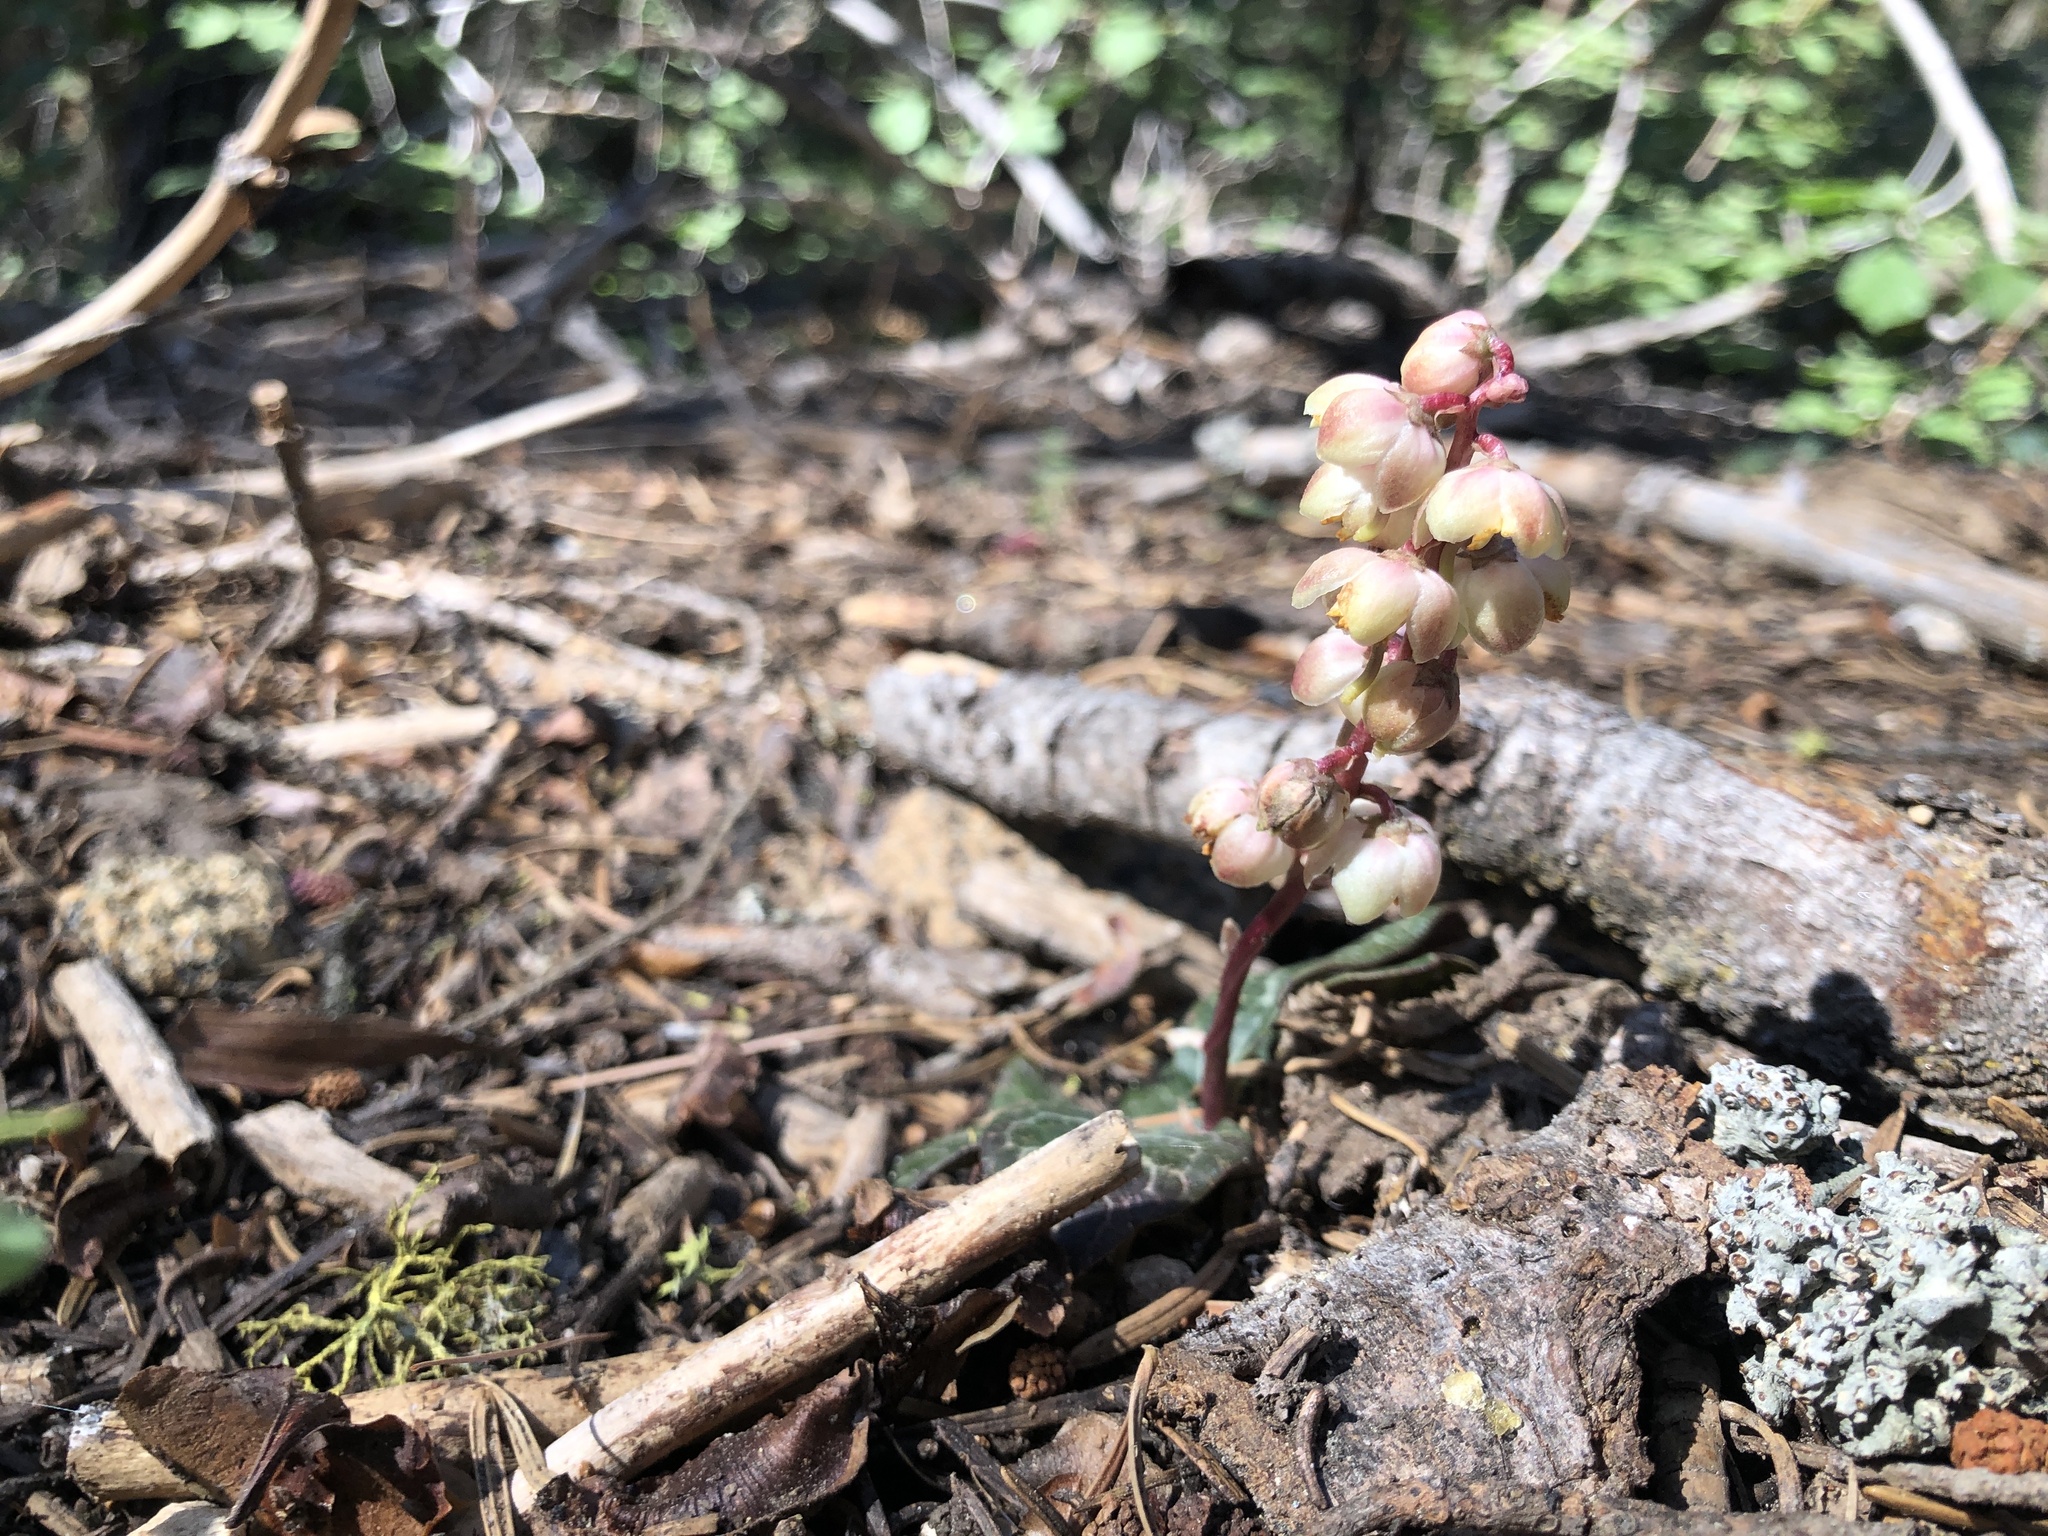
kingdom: Plantae
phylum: Tracheophyta
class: Magnoliopsida
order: Ericales
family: Ericaceae
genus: Pyrola
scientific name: Pyrola picta
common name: White-vein wintergreen
